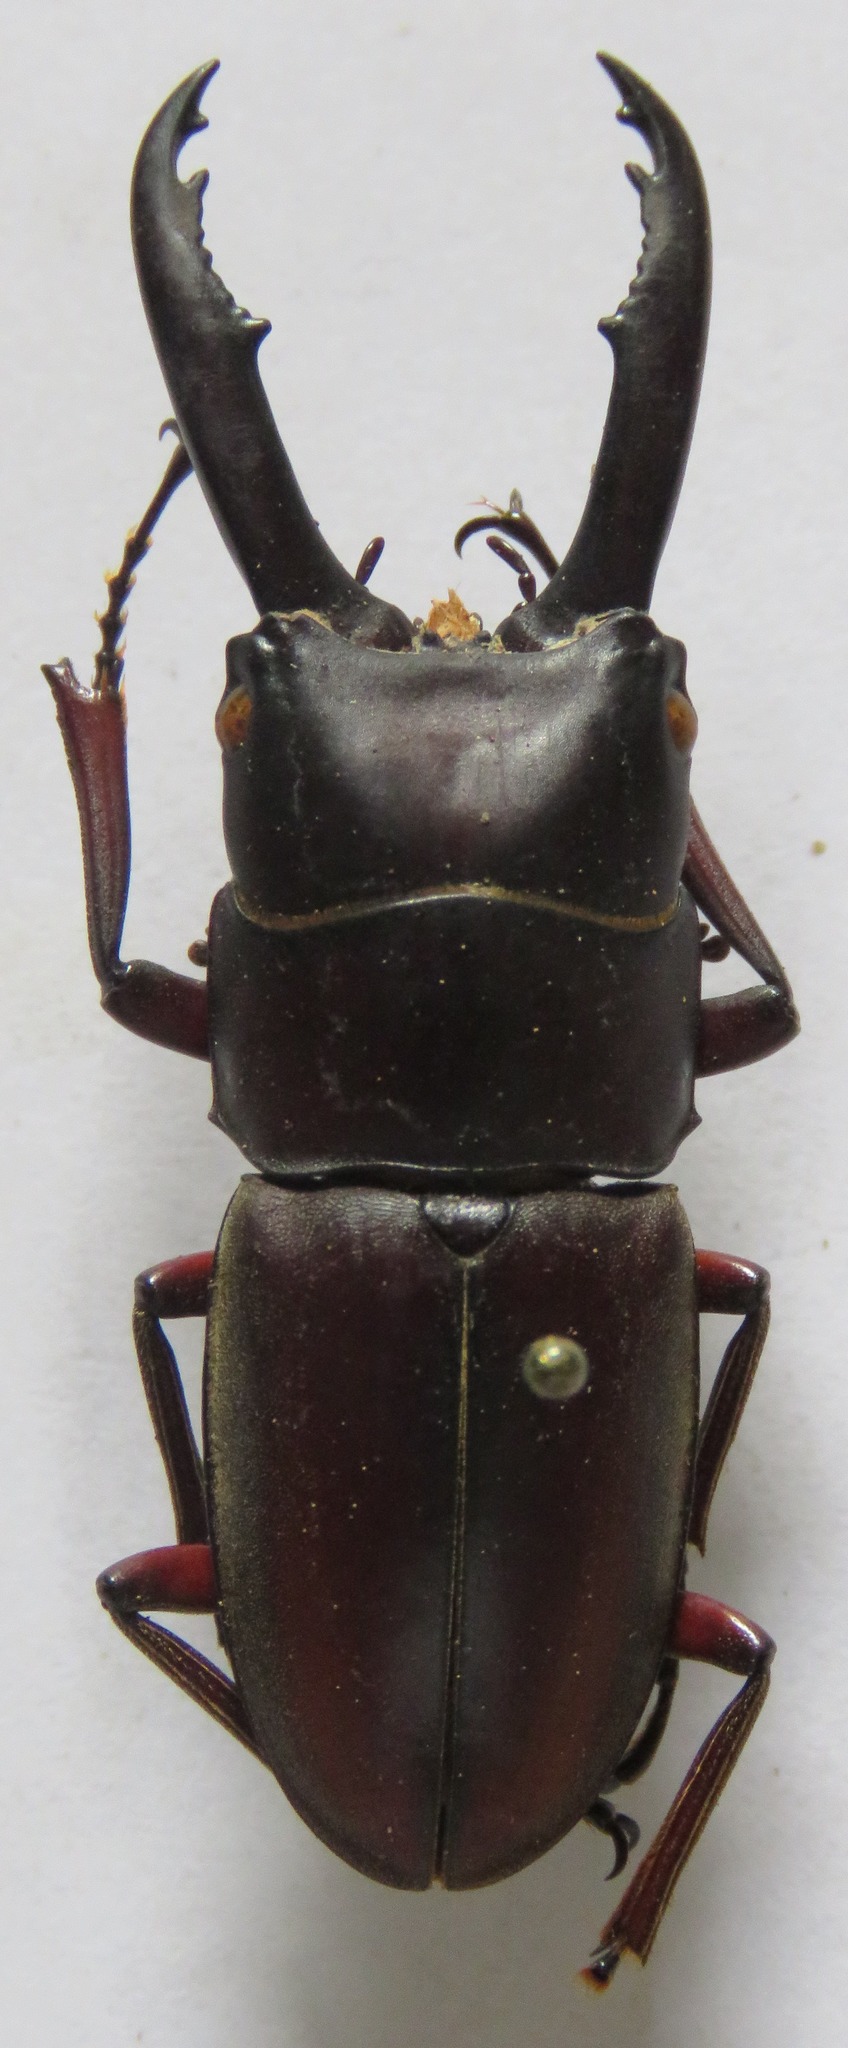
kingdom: Animalia
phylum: Arthropoda
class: Insecta
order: Coleoptera
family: Lucanidae
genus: Prosopocoilus
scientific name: Prosopocoilus mysticus
